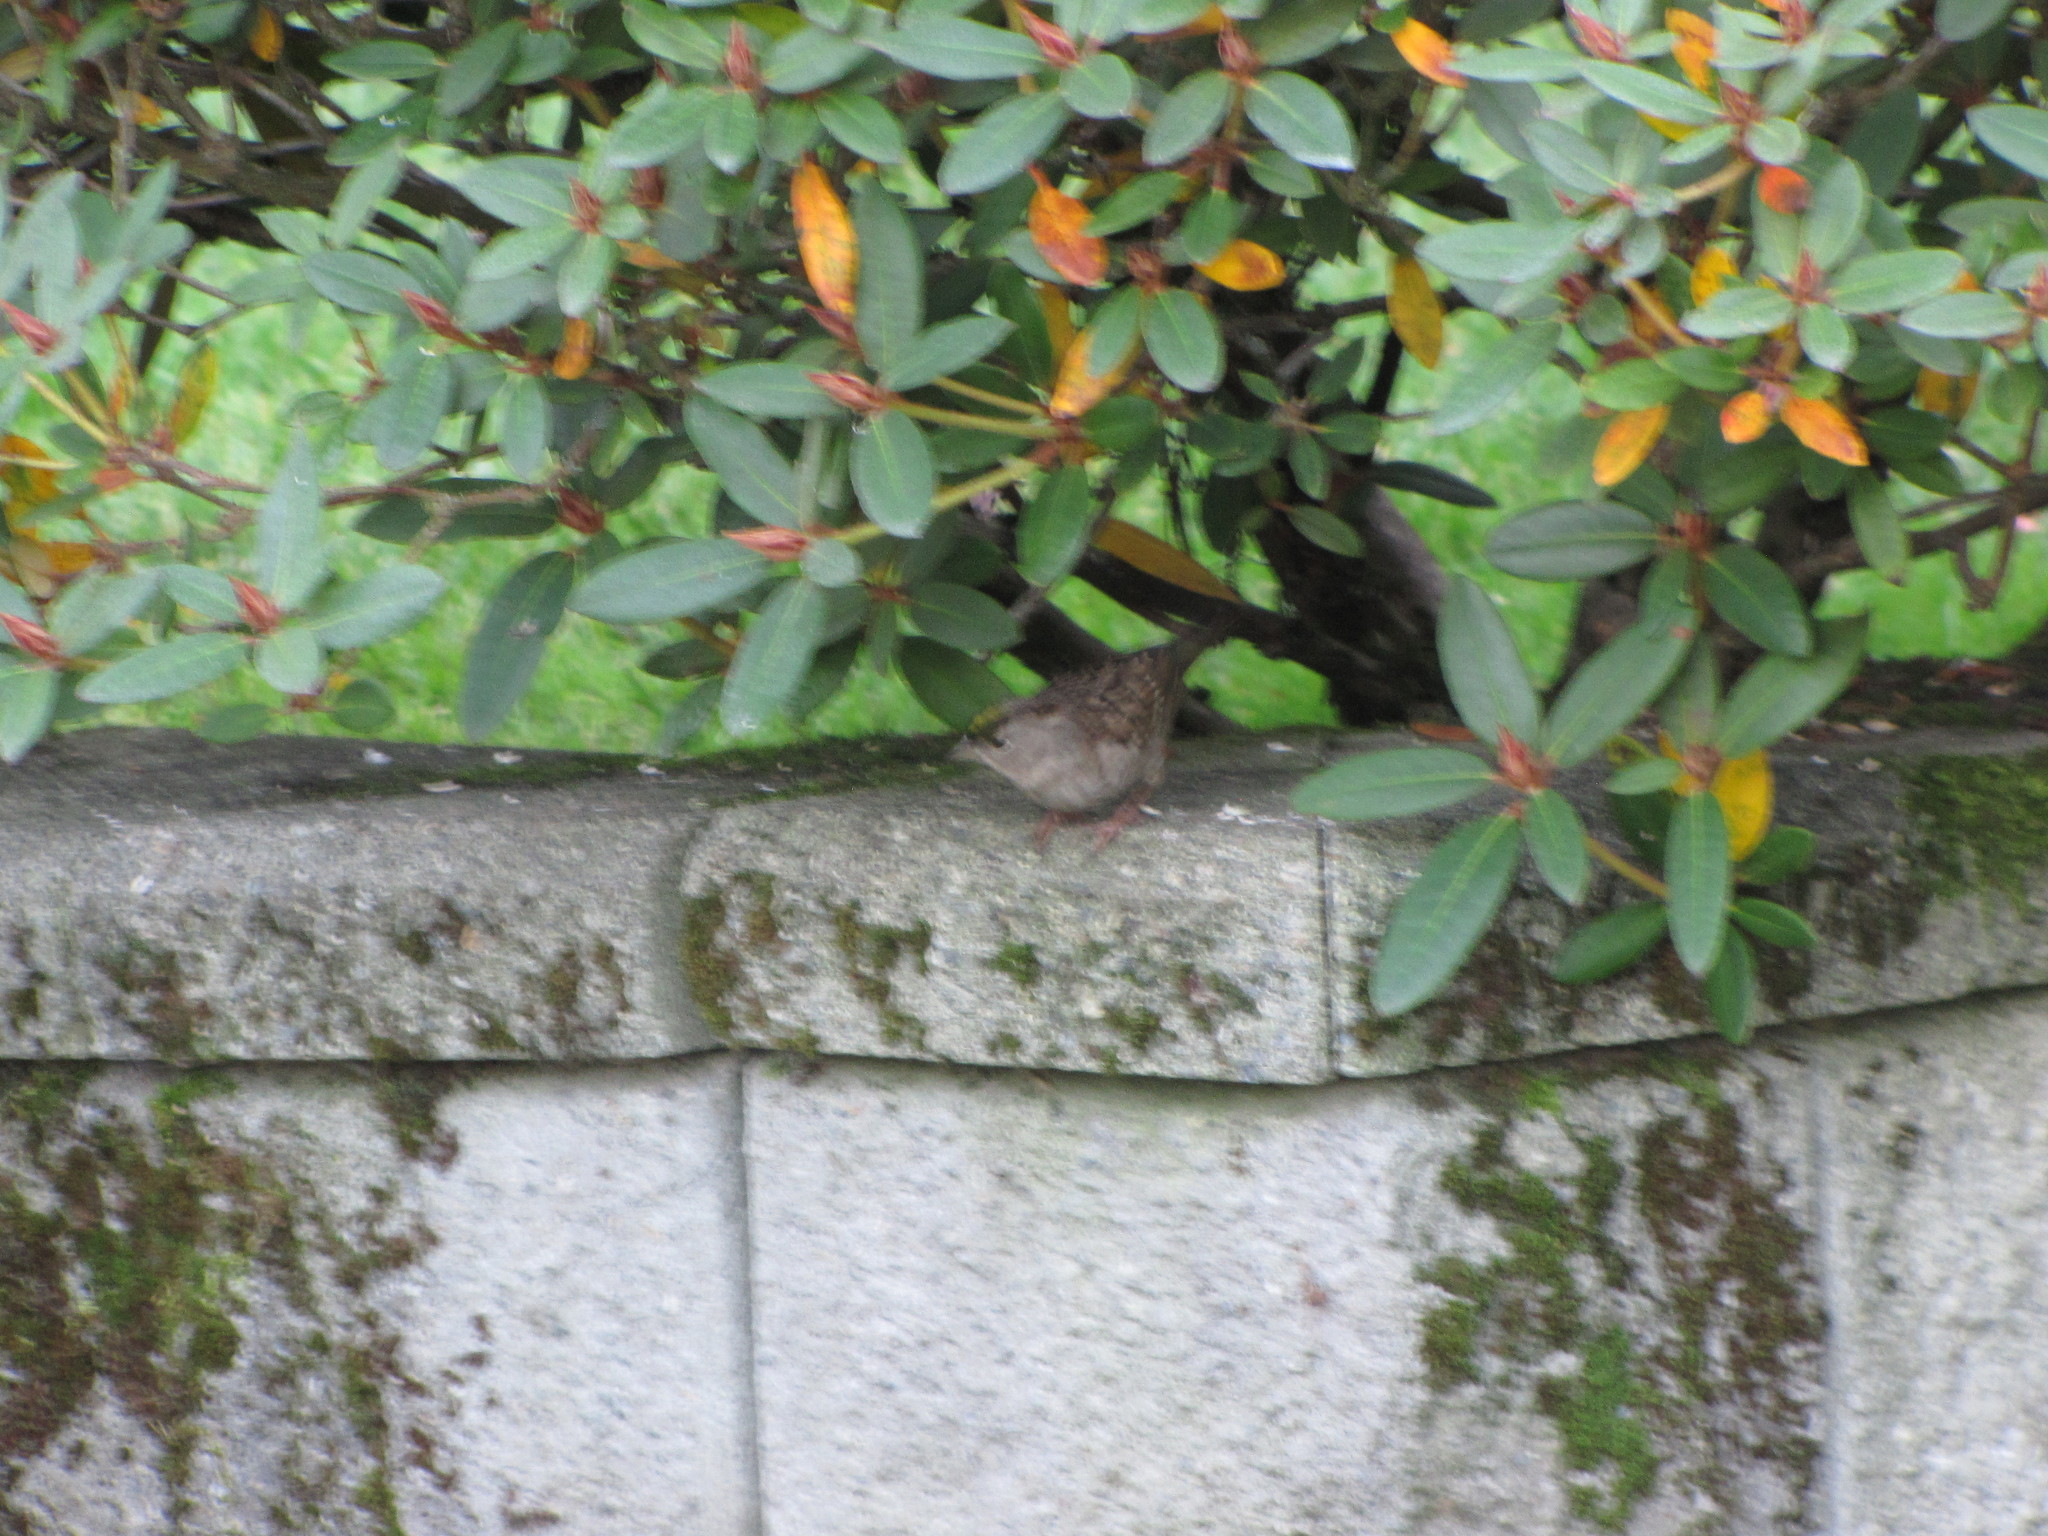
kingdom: Animalia
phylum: Chordata
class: Aves
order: Passeriformes
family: Passerellidae
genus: Zonotrichia
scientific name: Zonotrichia atricapilla
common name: Golden-crowned sparrow
